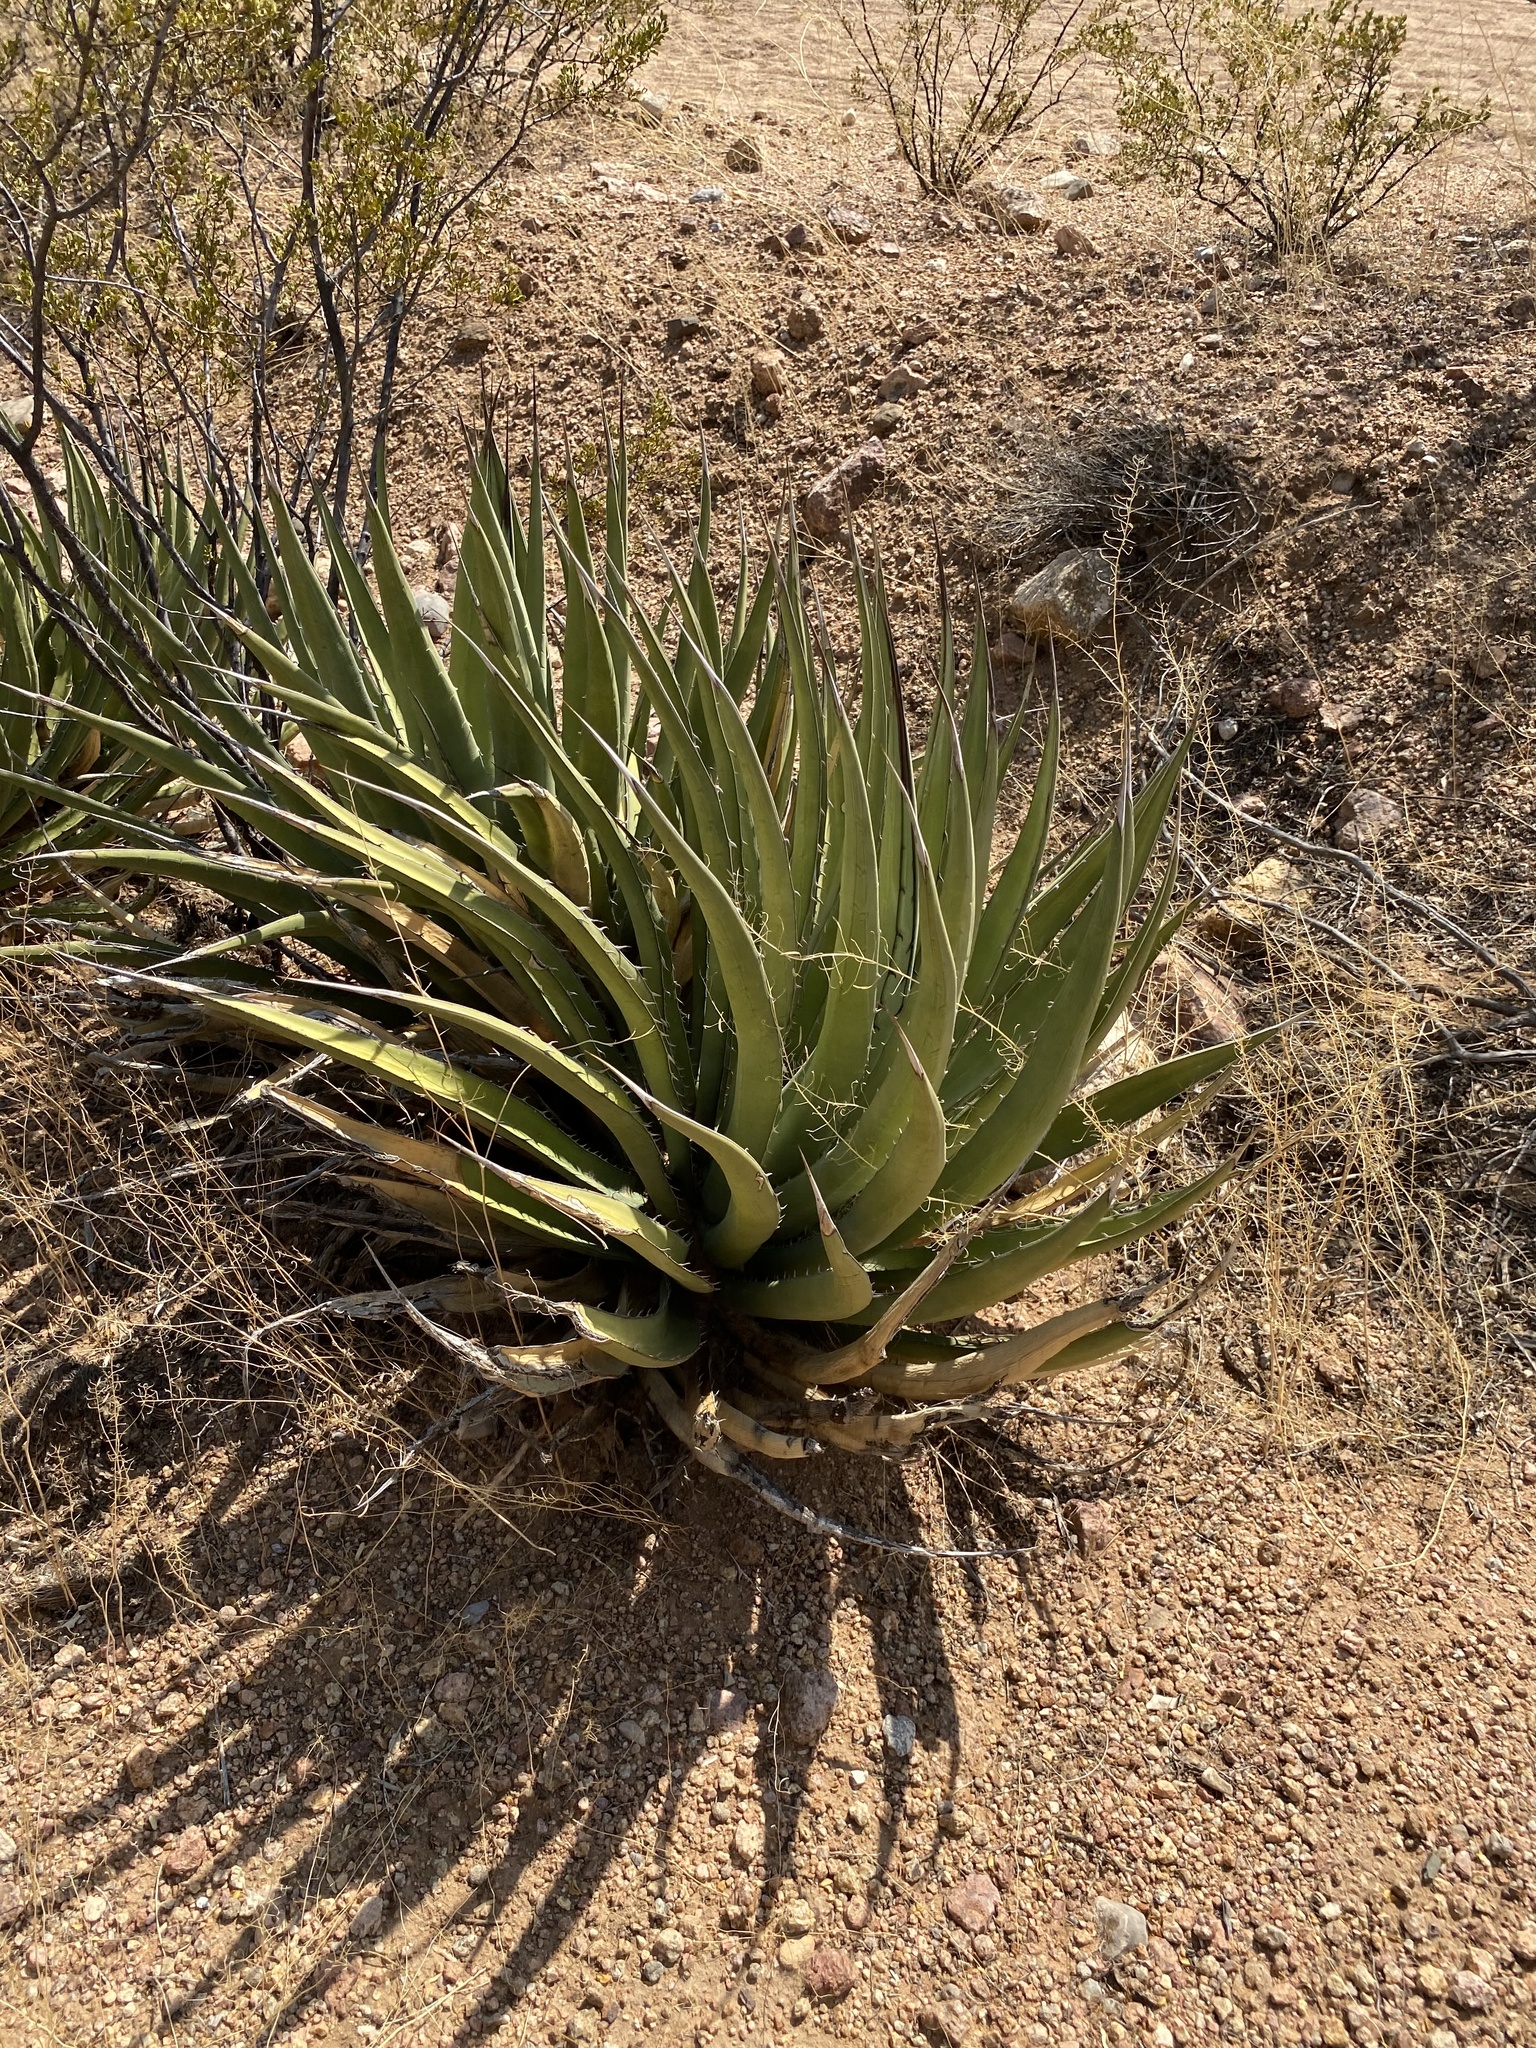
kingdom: Plantae
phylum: Tracheophyta
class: Liliopsida
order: Asparagales
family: Asparagaceae
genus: Agave
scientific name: Agave lechuguilla
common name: Lecheguilla agave
